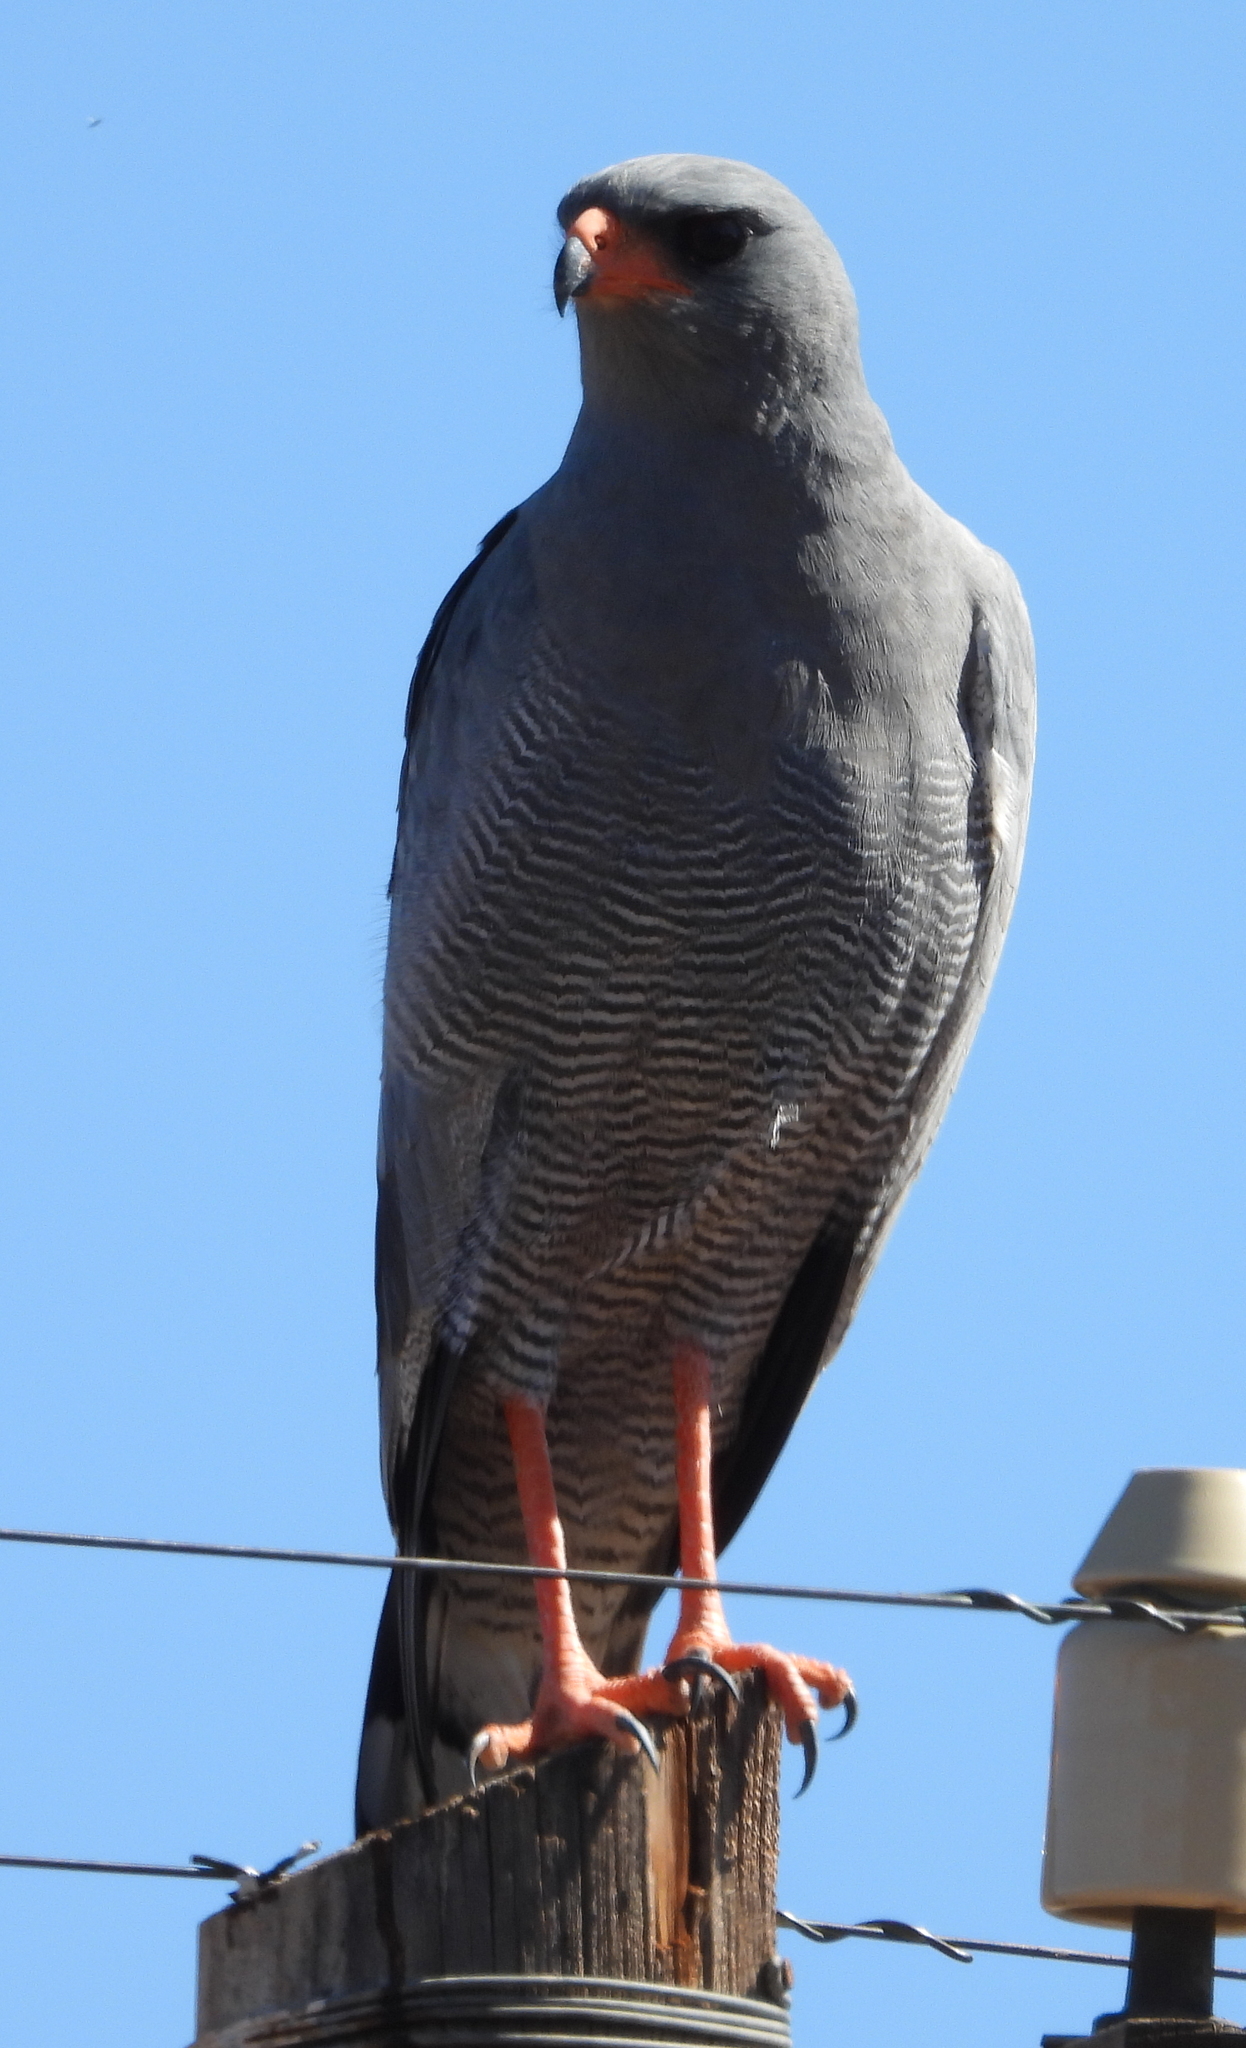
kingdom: Animalia
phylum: Chordata
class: Aves
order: Accipitriformes
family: Accipitridae
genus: Melierax
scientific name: Melierax canorus
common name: Pale chanting-goshawk
